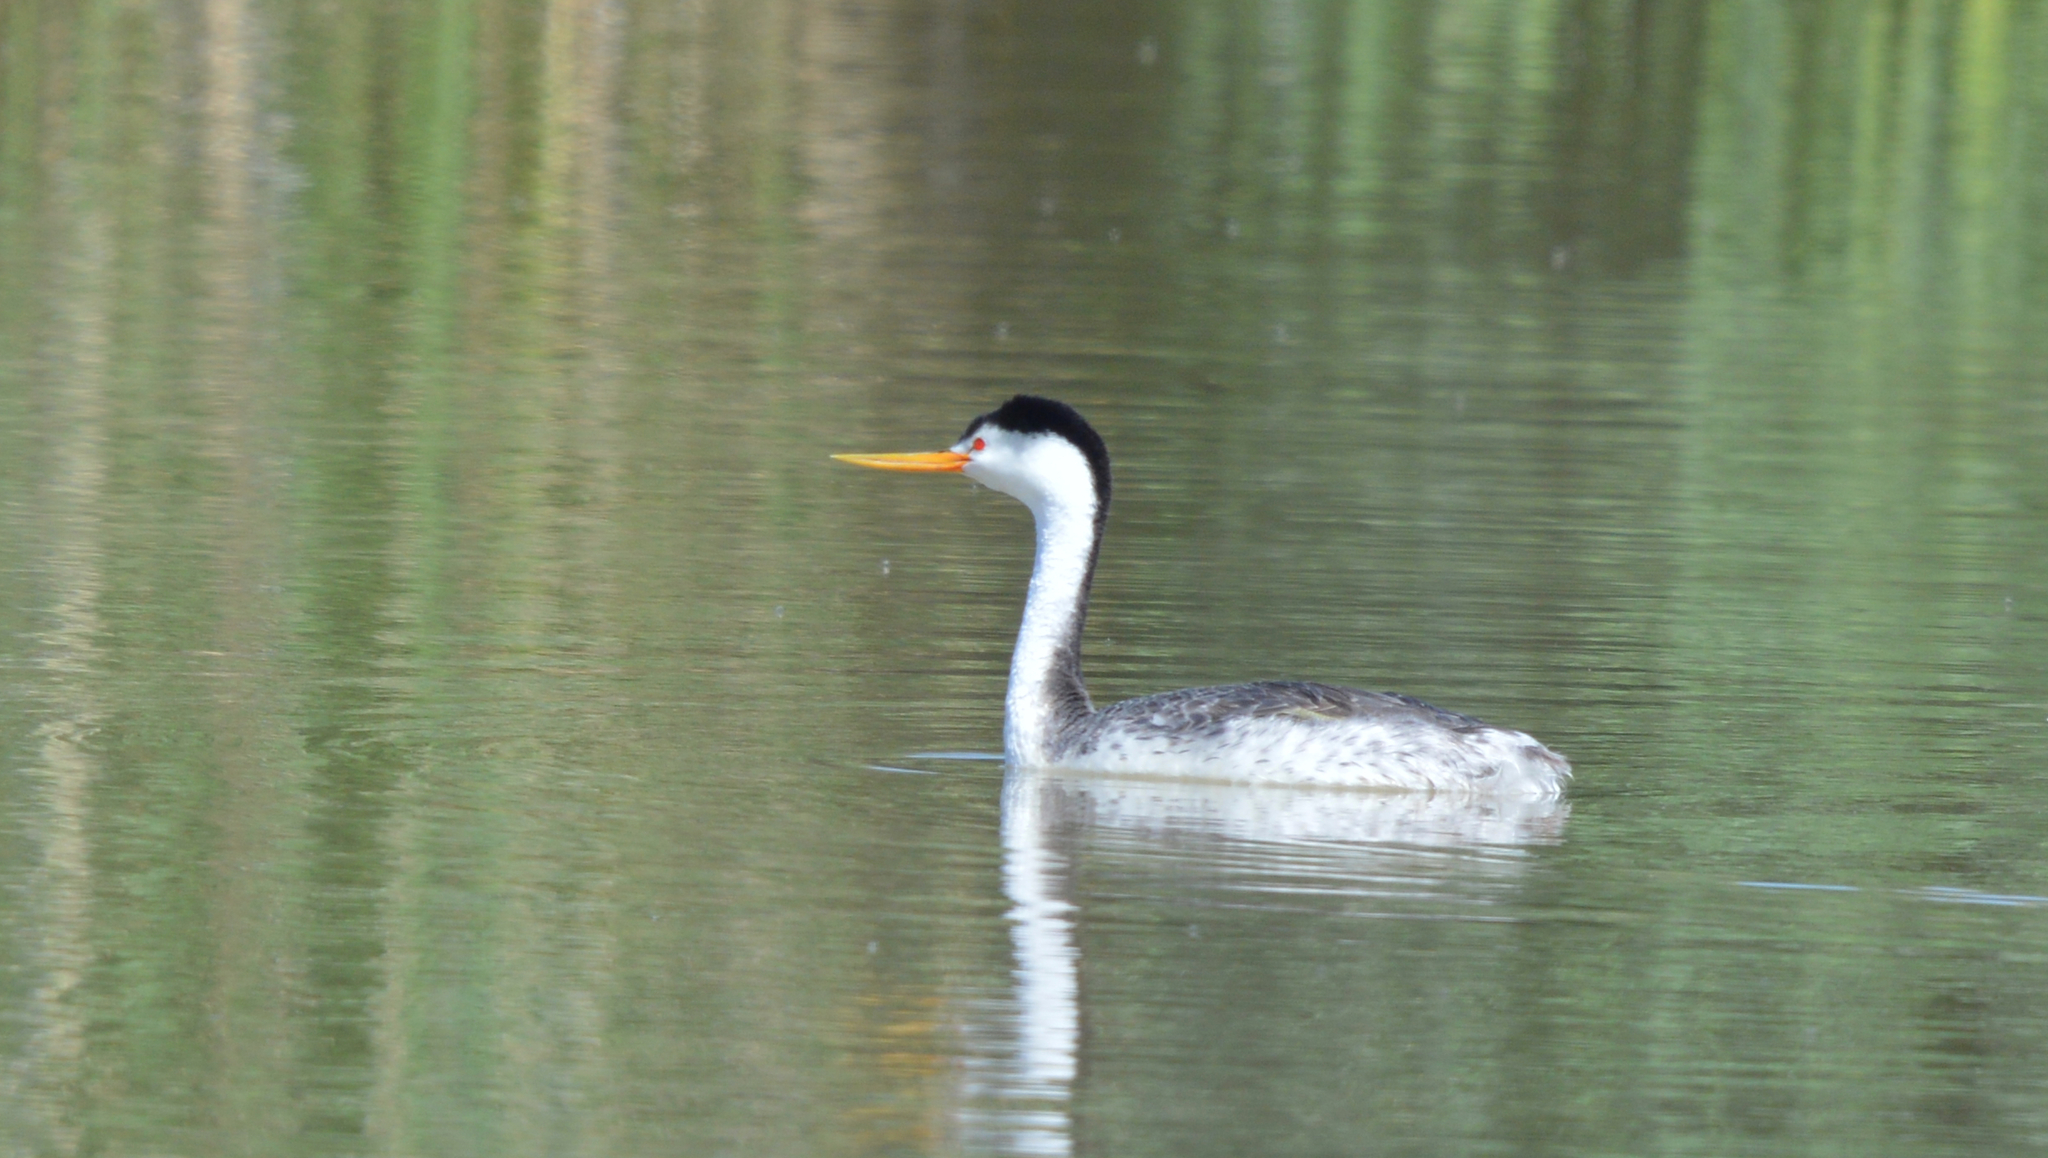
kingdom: Animalia
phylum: Chordata
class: Aves
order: Podicipediformes
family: Podicipedidae
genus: Aechmophorus
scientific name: Aechmophorus clarkii
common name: Clark's grebe
